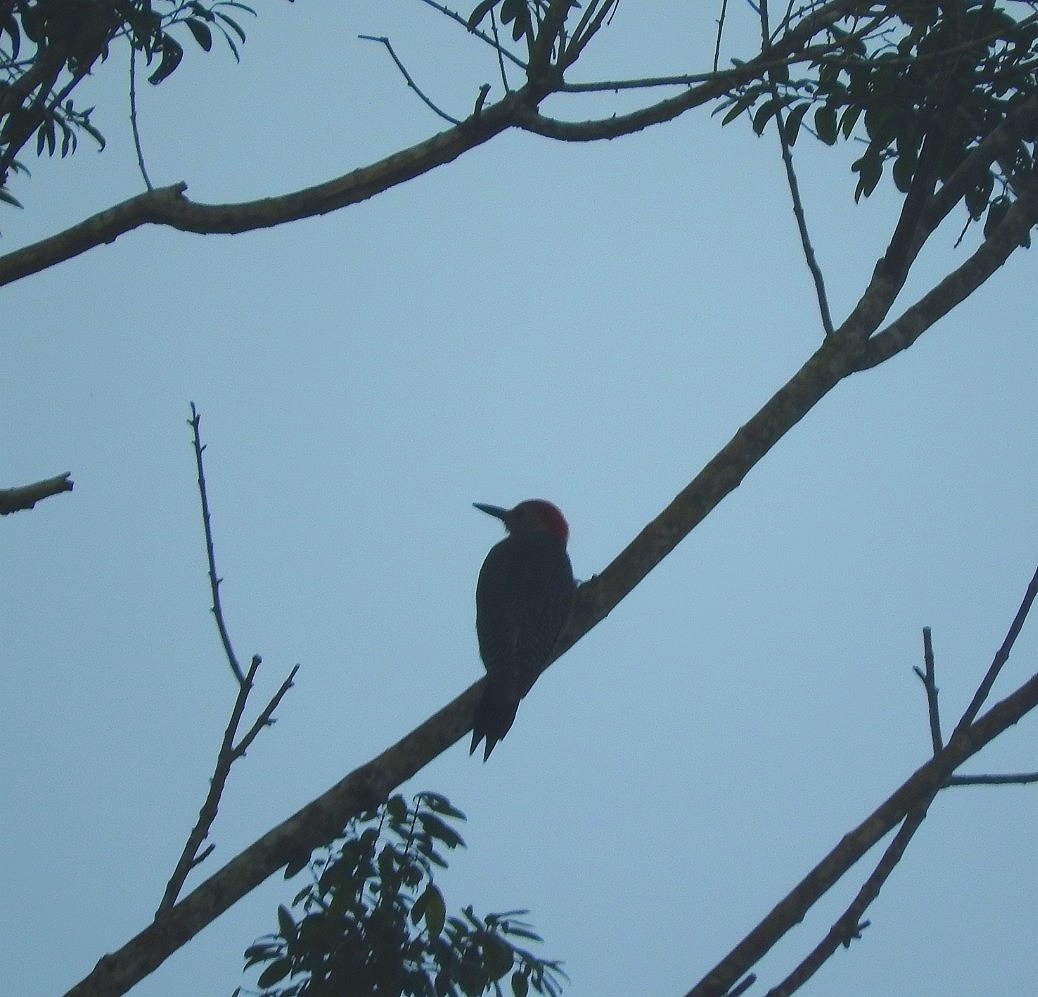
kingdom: Animalia
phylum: Chordata
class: Aves
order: Piciformes
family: Picidae
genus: Melanerpes
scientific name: Melanerpes aurifrons
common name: Golden-fronted woodpecker
